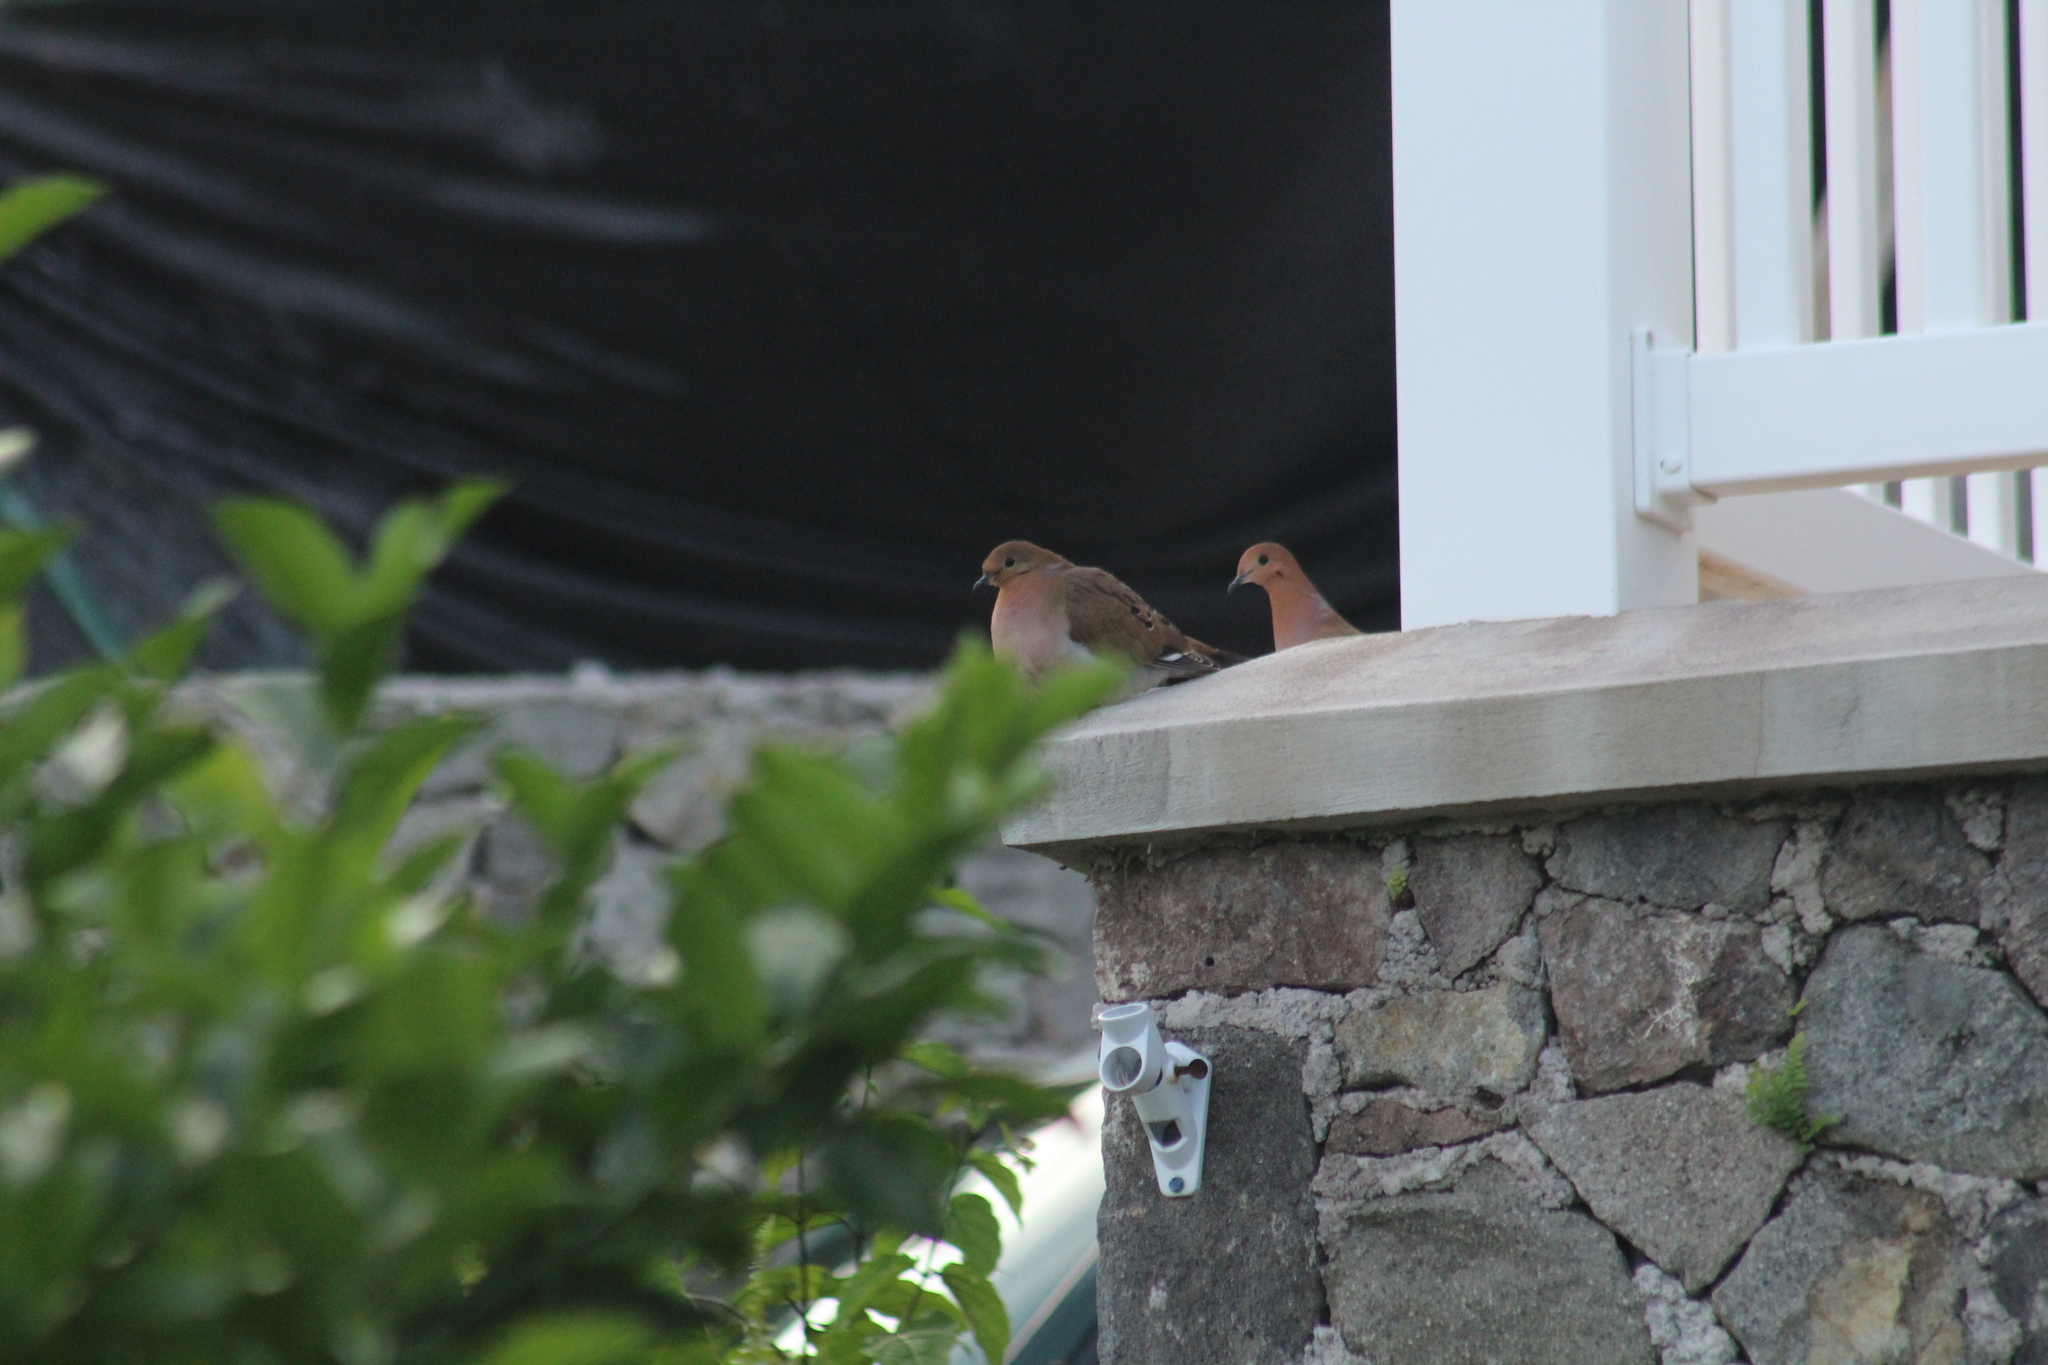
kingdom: Animalia
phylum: Chordata
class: Aves
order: Columbiformes
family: Columbidae
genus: Zenaida
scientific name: Zenaida aurita
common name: Zenaida dove
